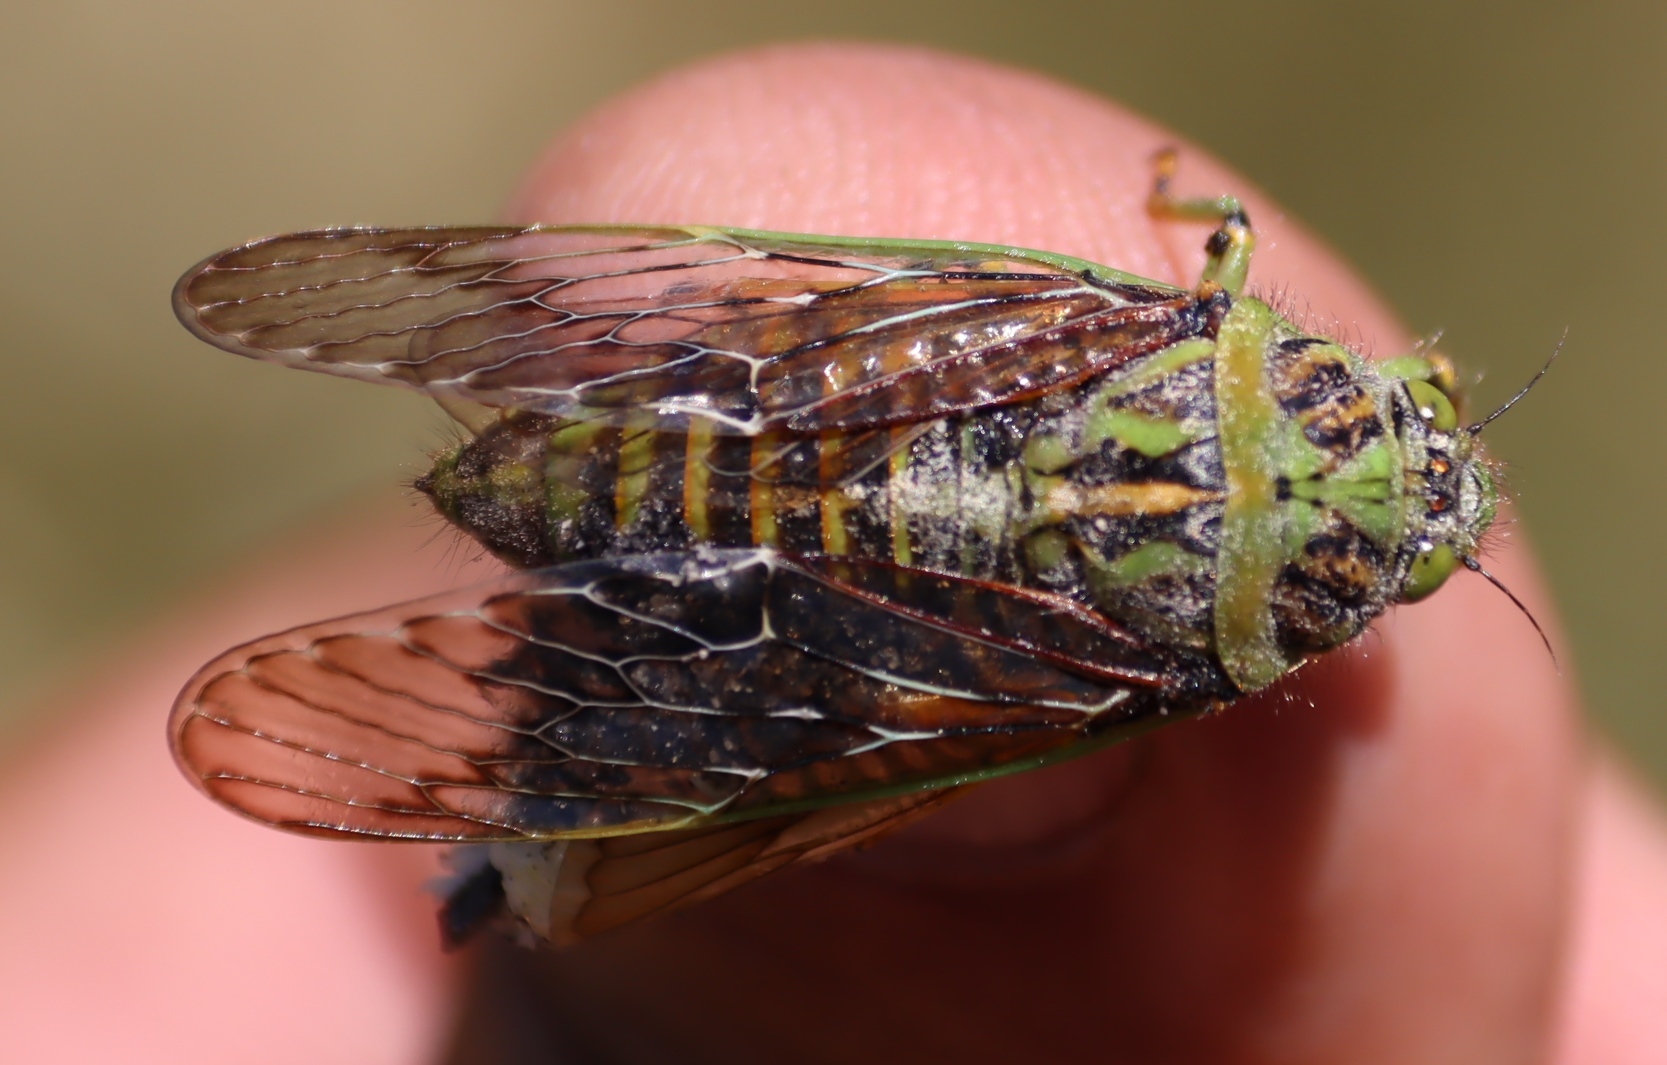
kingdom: Animalia
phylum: Arthropoda
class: Insecta
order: Hemiptera
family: Cicadidae
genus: Neomuda
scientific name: Neomuda peringueyi
